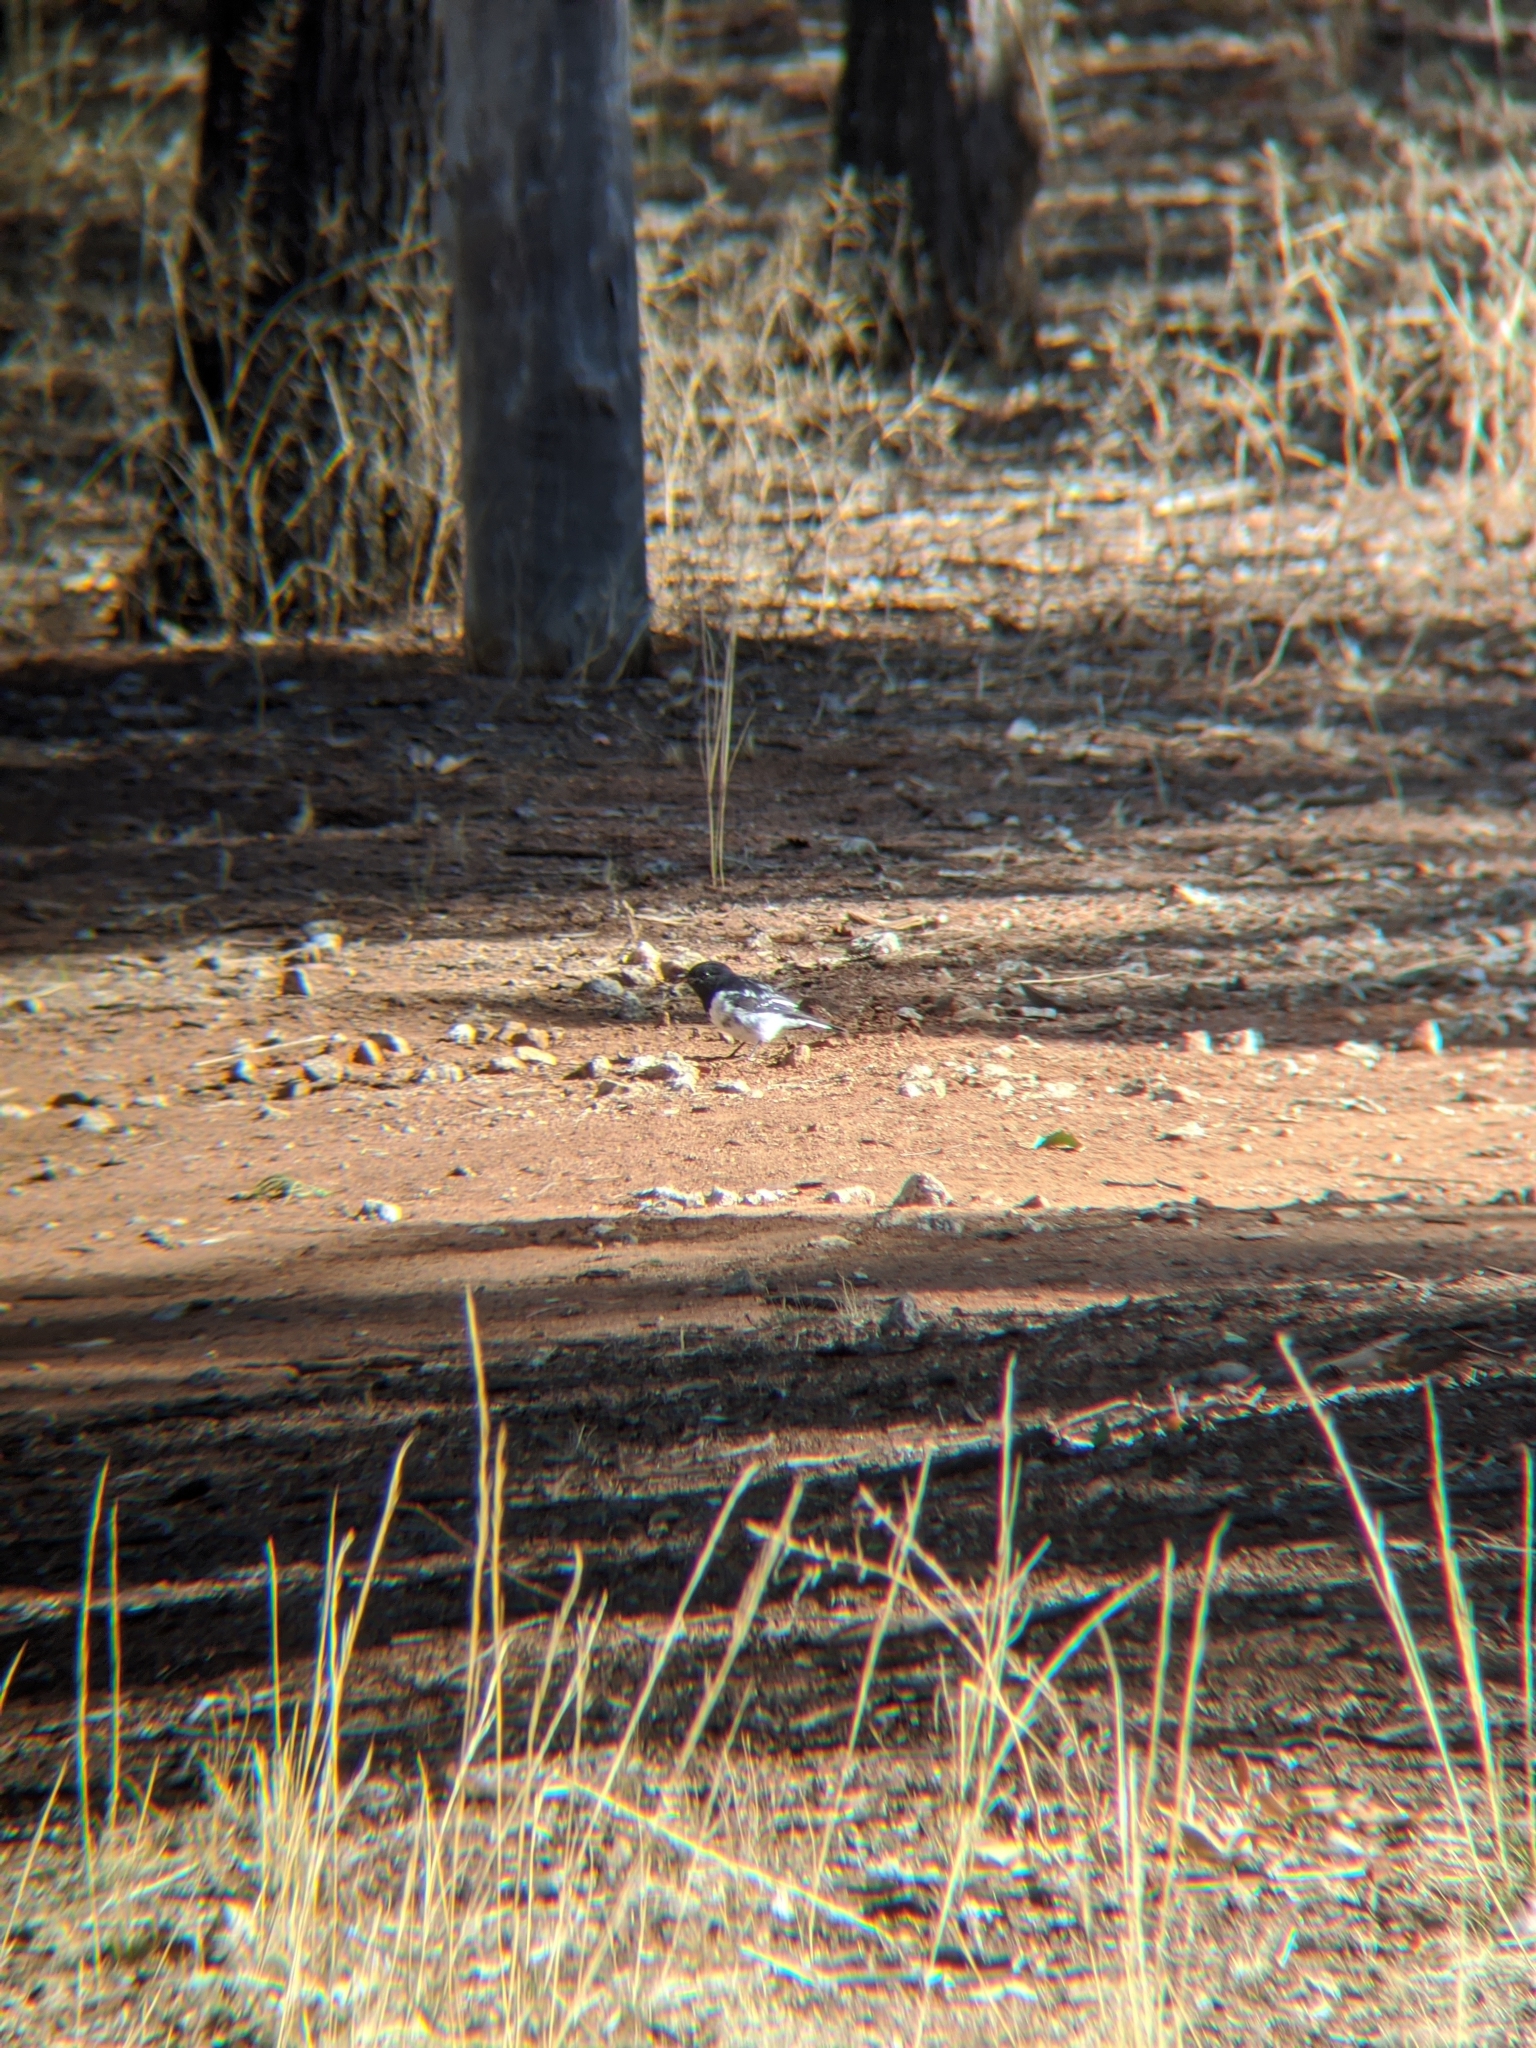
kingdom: Animalia
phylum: Chordata
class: Aves
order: Passeriformes
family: Petroicidae
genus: Melanodryas
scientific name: Melanodryas cucullata
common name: Hooded robin
